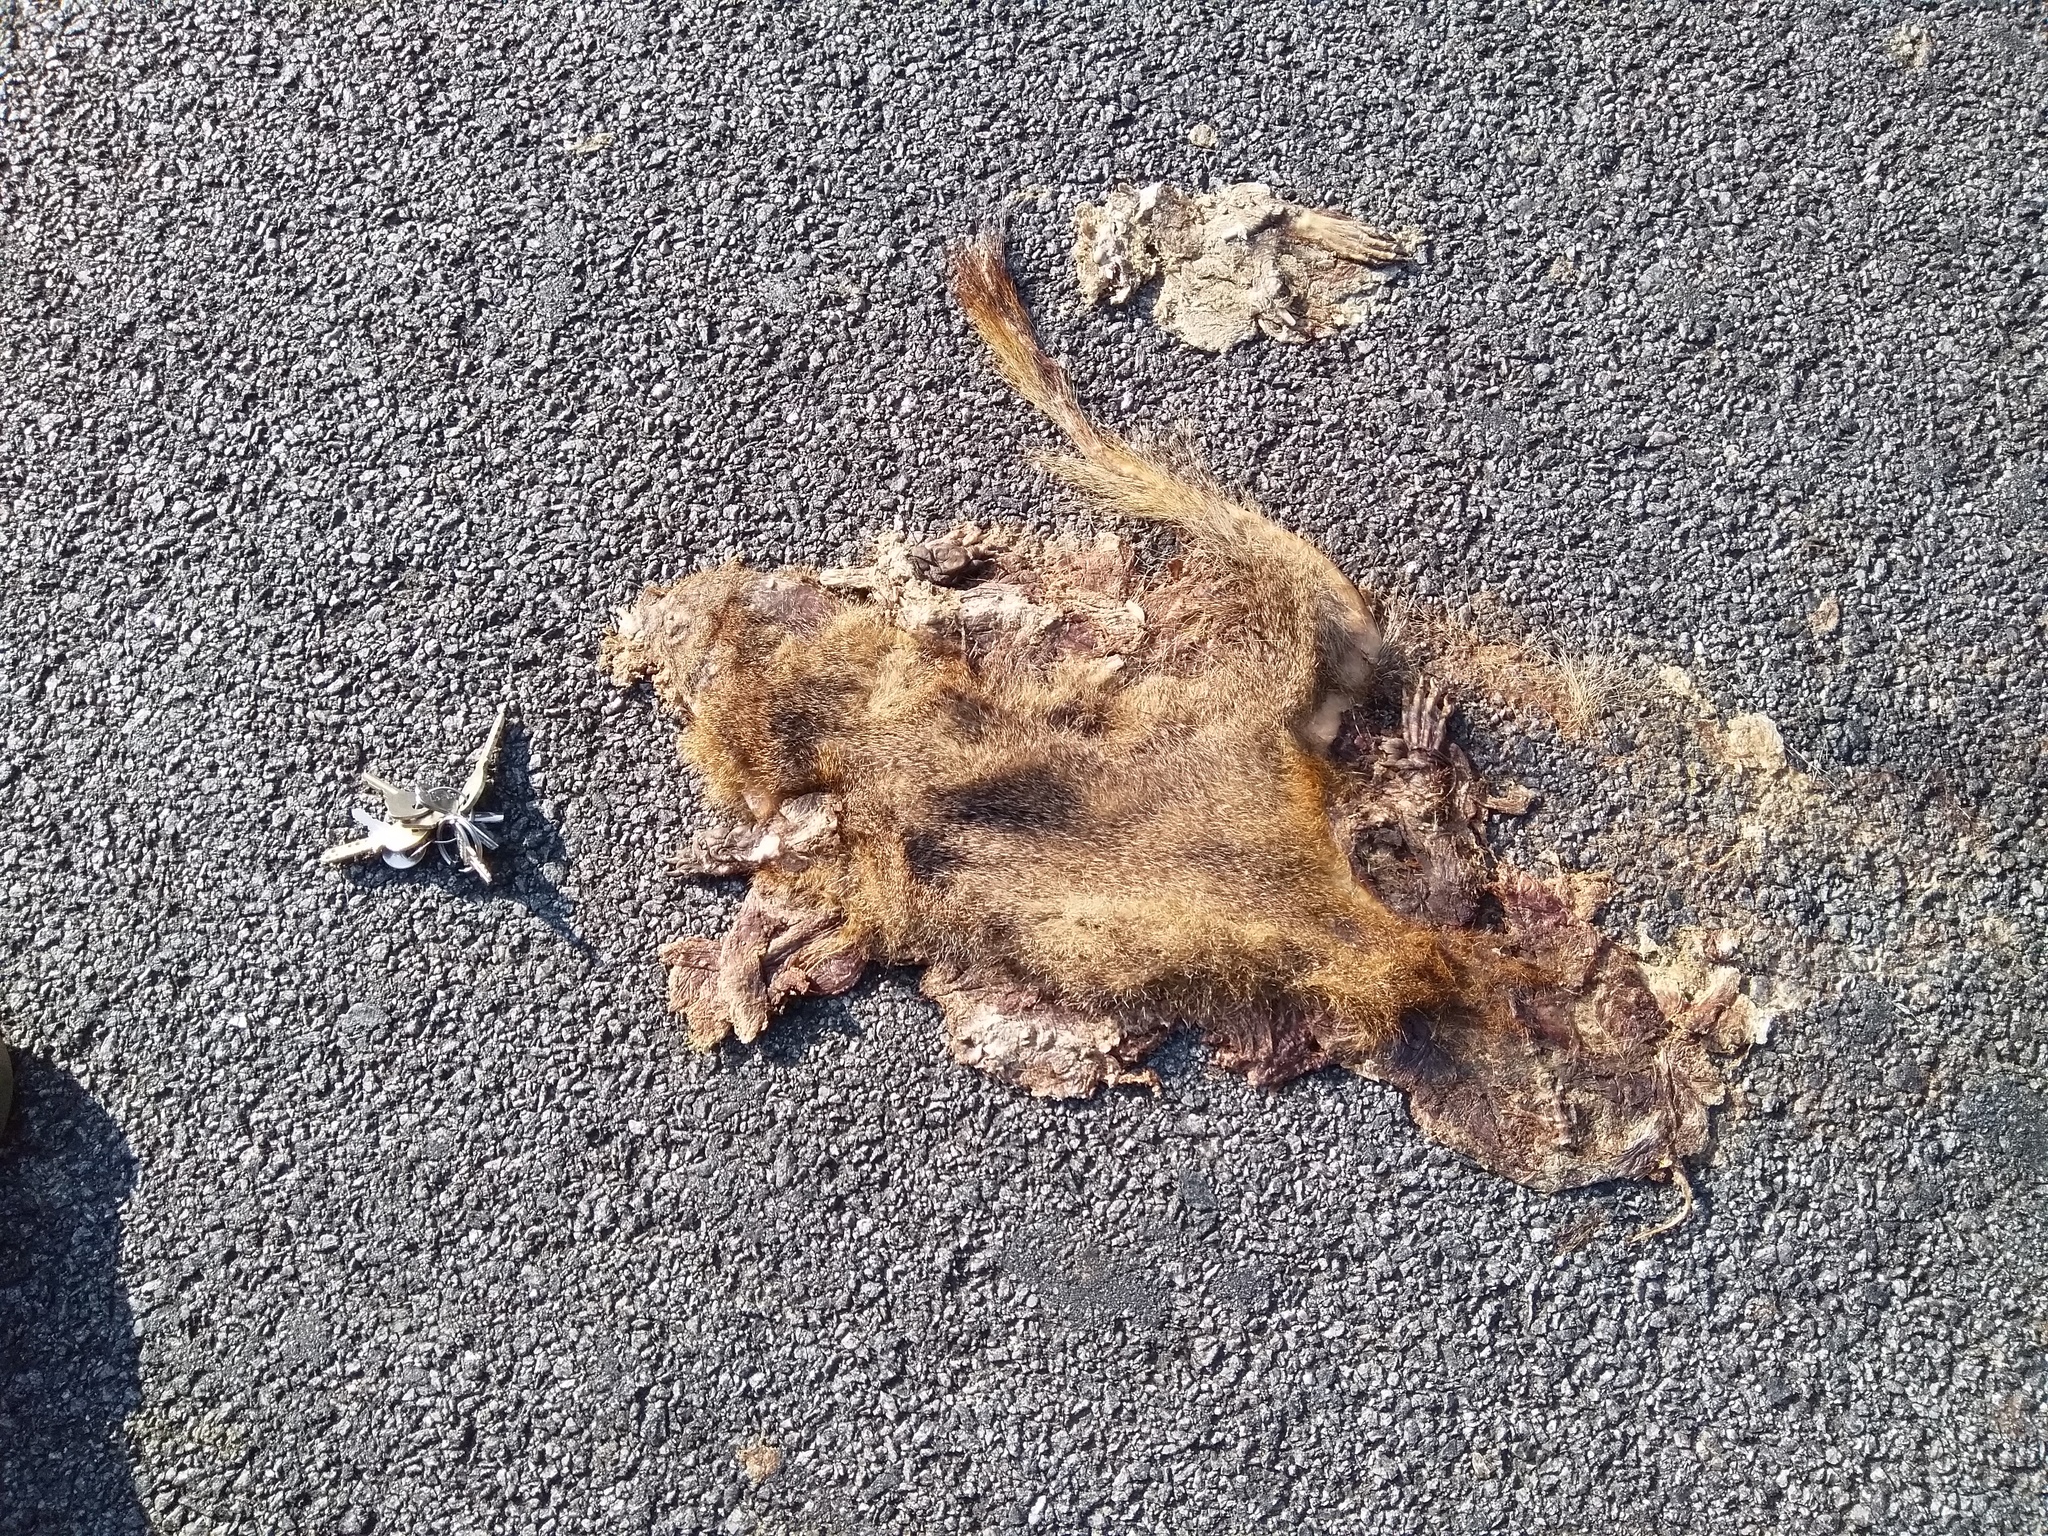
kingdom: Animalia
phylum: Chordata
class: Mammalia
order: Carnivora
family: Herpestidae
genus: Herpestes
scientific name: Herpestes smithii
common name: Ruddy mongoose
